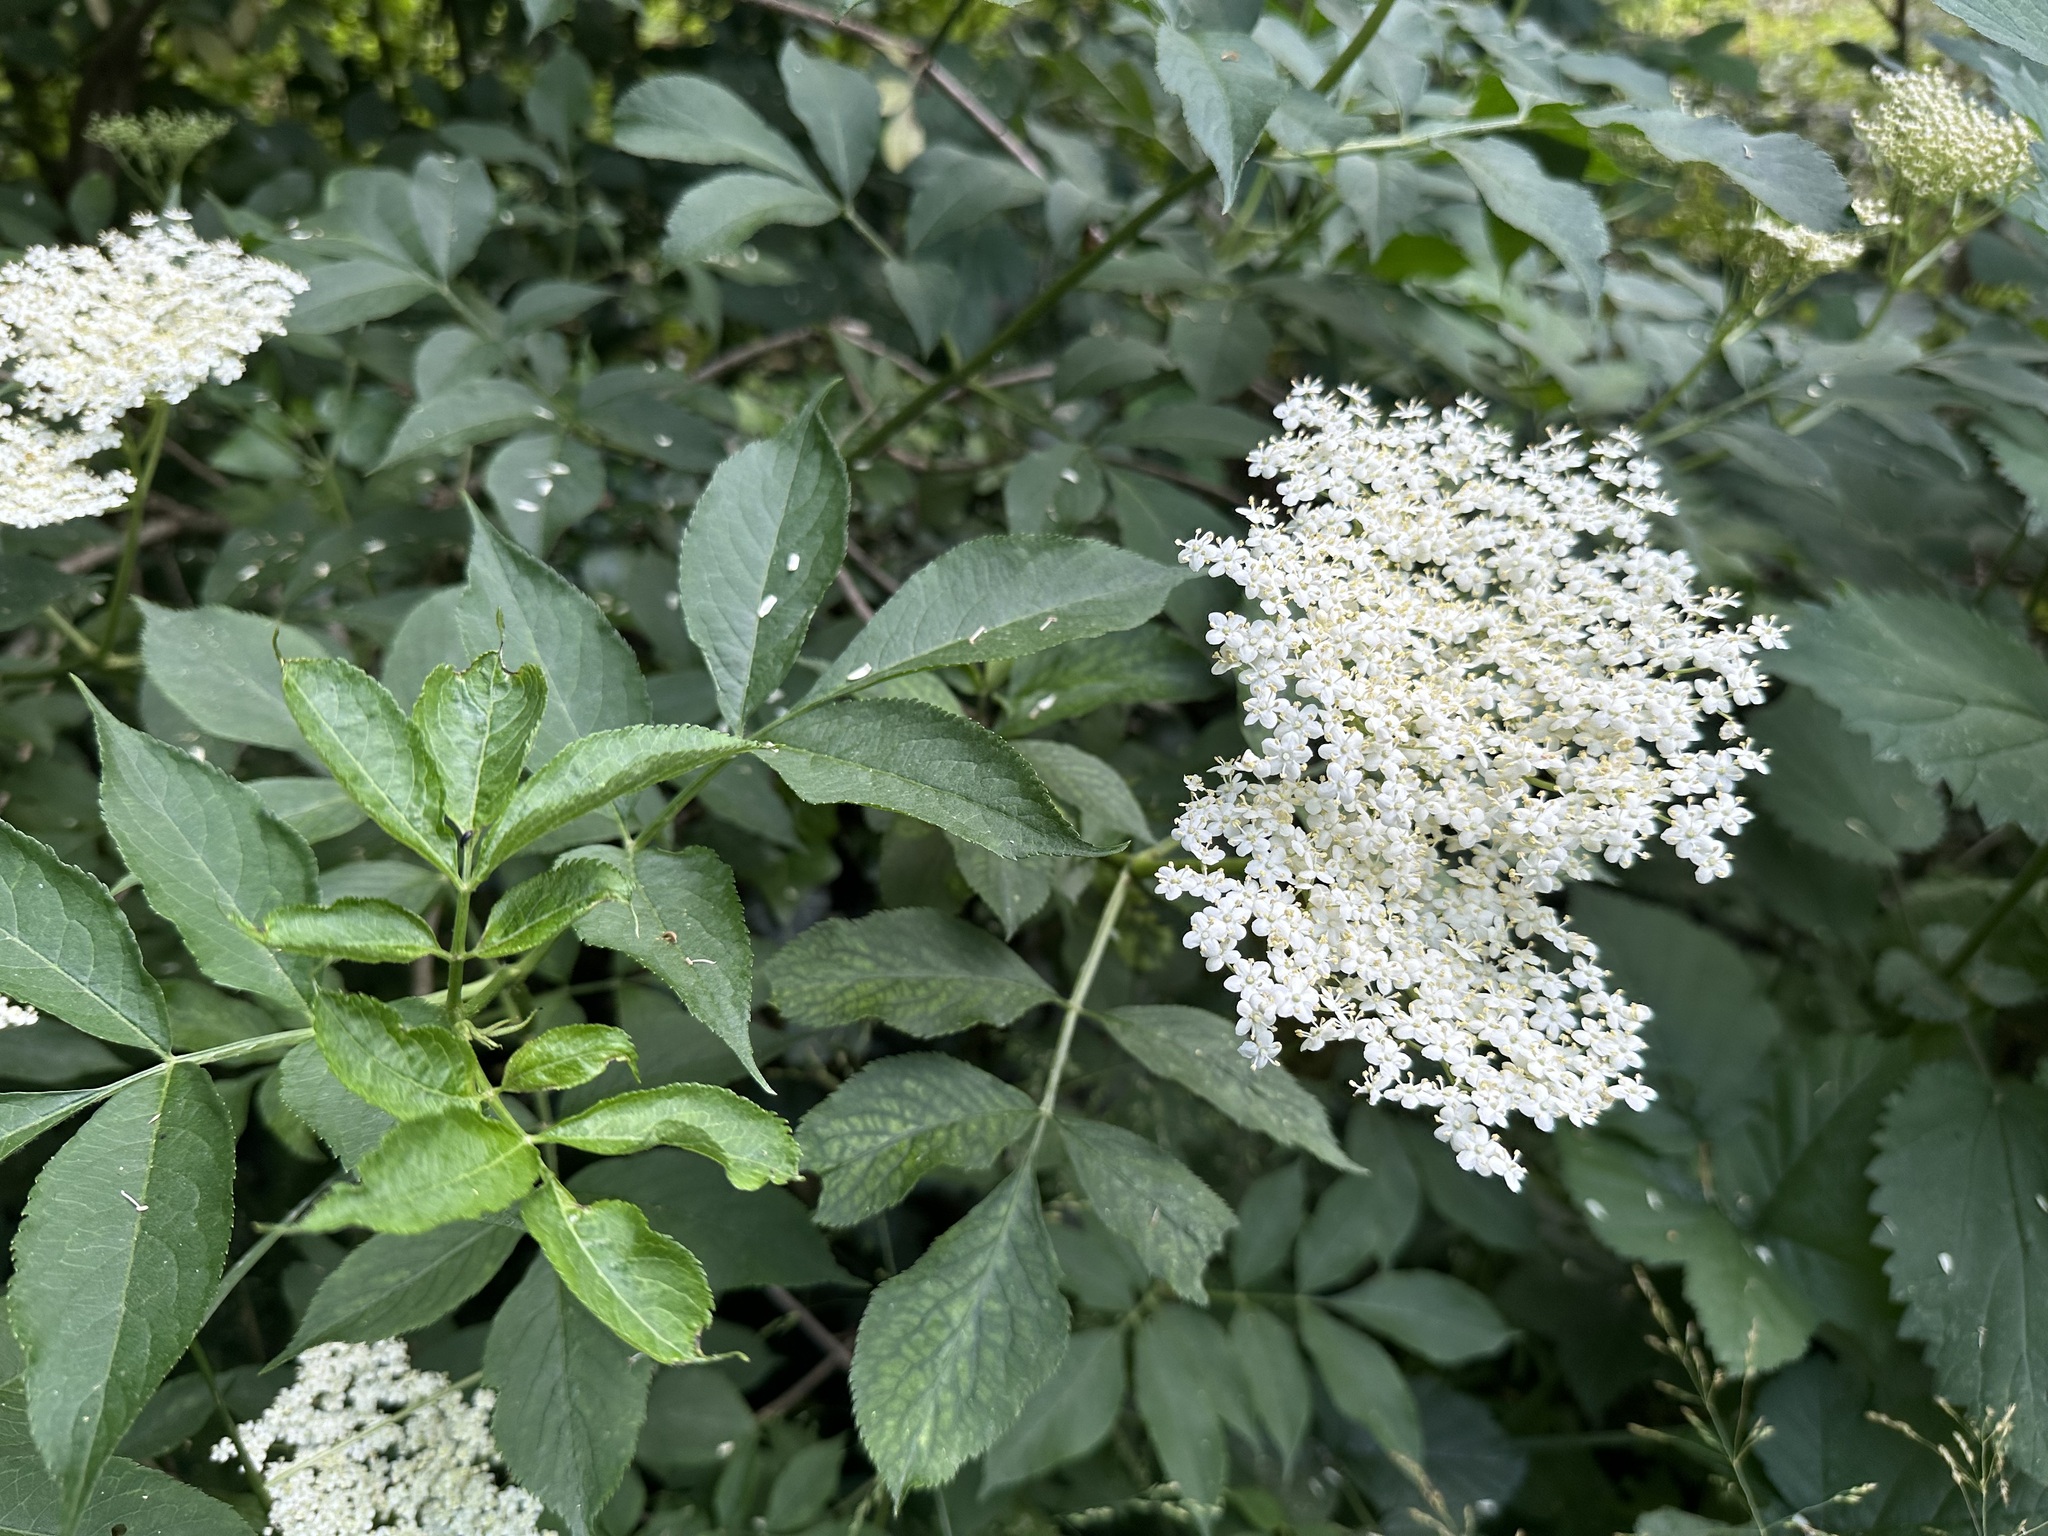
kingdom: Plantae
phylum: Tracheophyta
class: Magnoliopsida
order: Dipsacales
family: Viburnaceae
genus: Sambucus
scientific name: Sambucus nigra
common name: Elder
